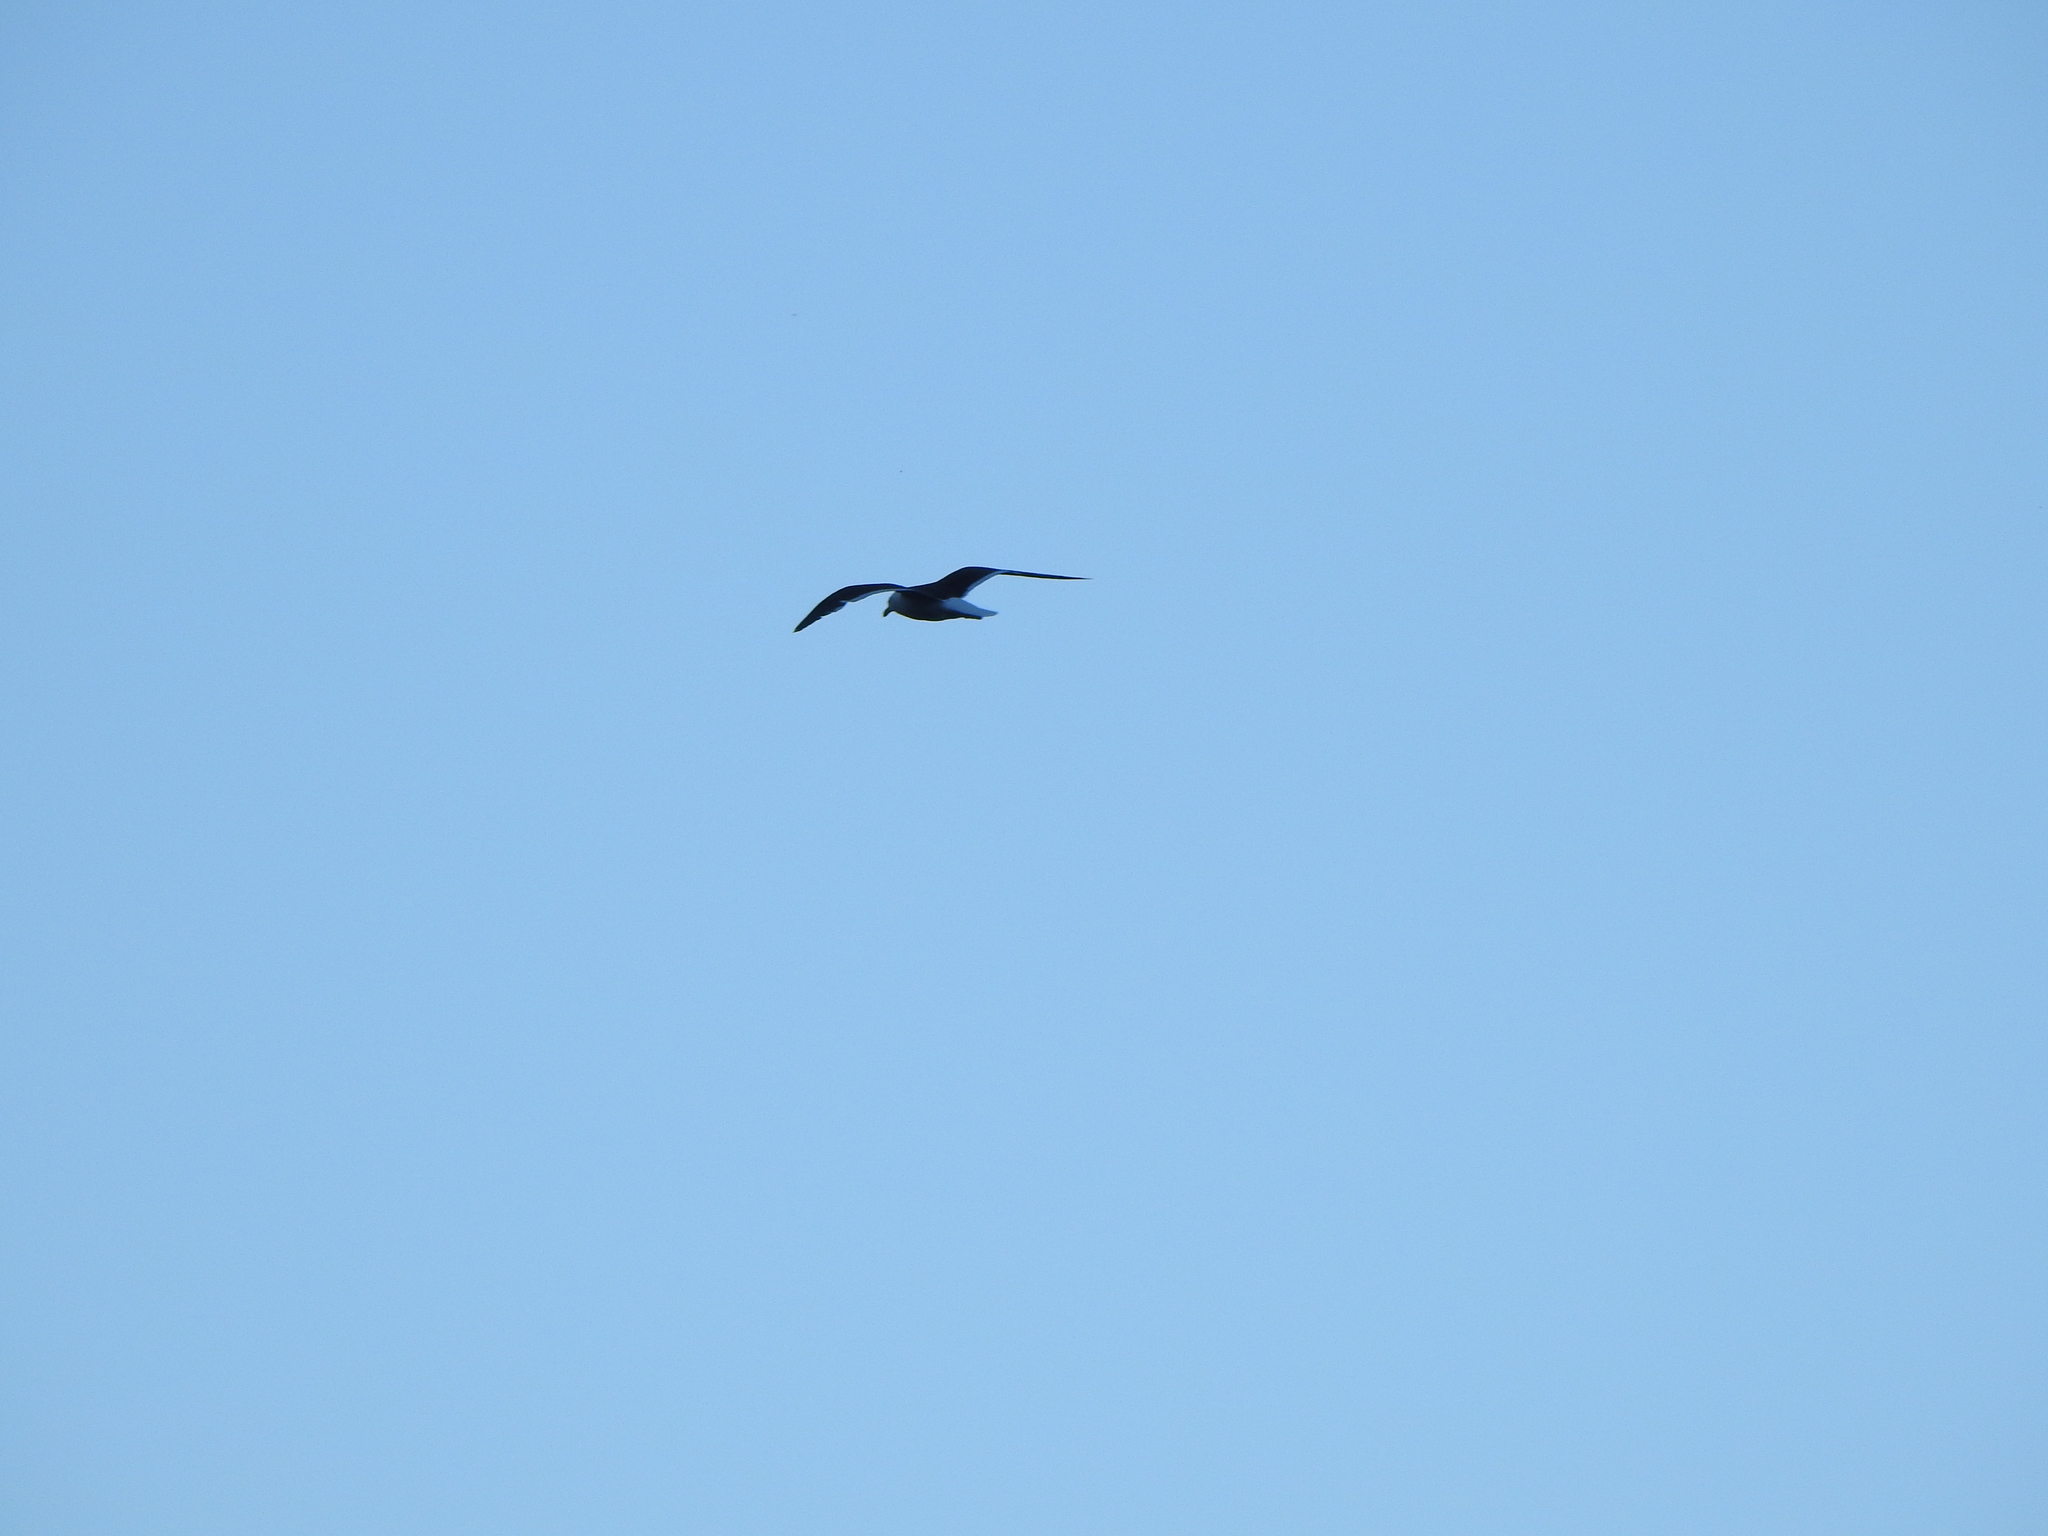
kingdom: Animalia
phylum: Chordata
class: Aves
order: Charadriiformes
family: Laridae
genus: Larus
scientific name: Larus dominicanus
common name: Kelp gull
